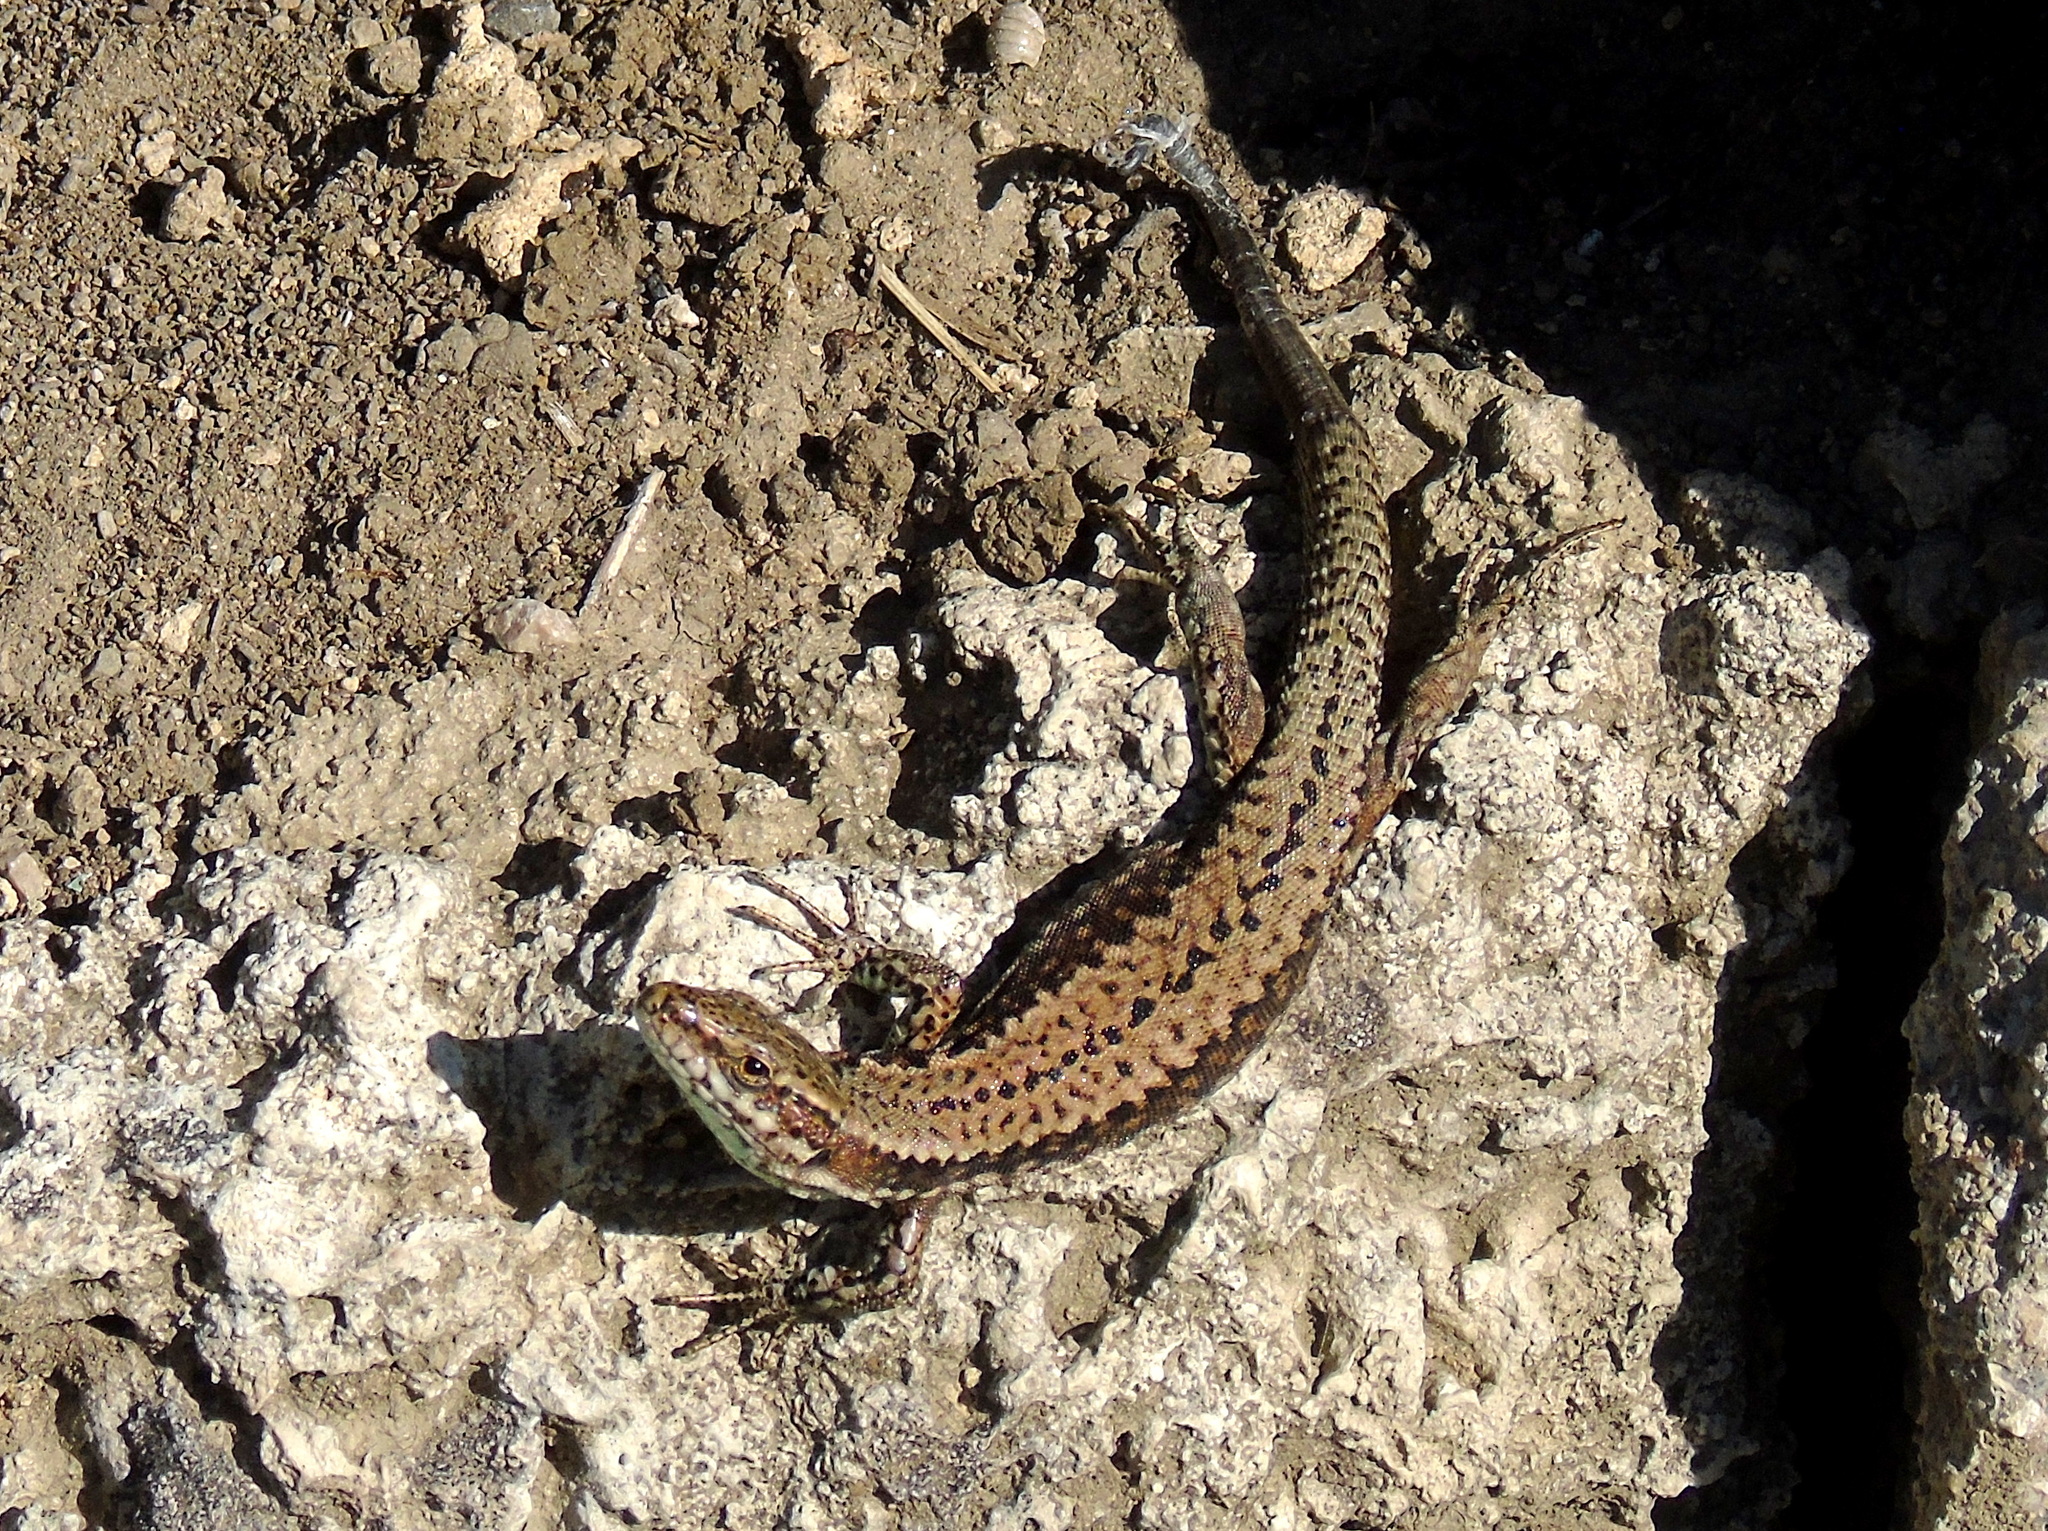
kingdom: Animalia
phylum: Chordata
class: Squamata
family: Lacertidae
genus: Podarcis
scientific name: Podarcis muralis
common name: Common wall lizard
